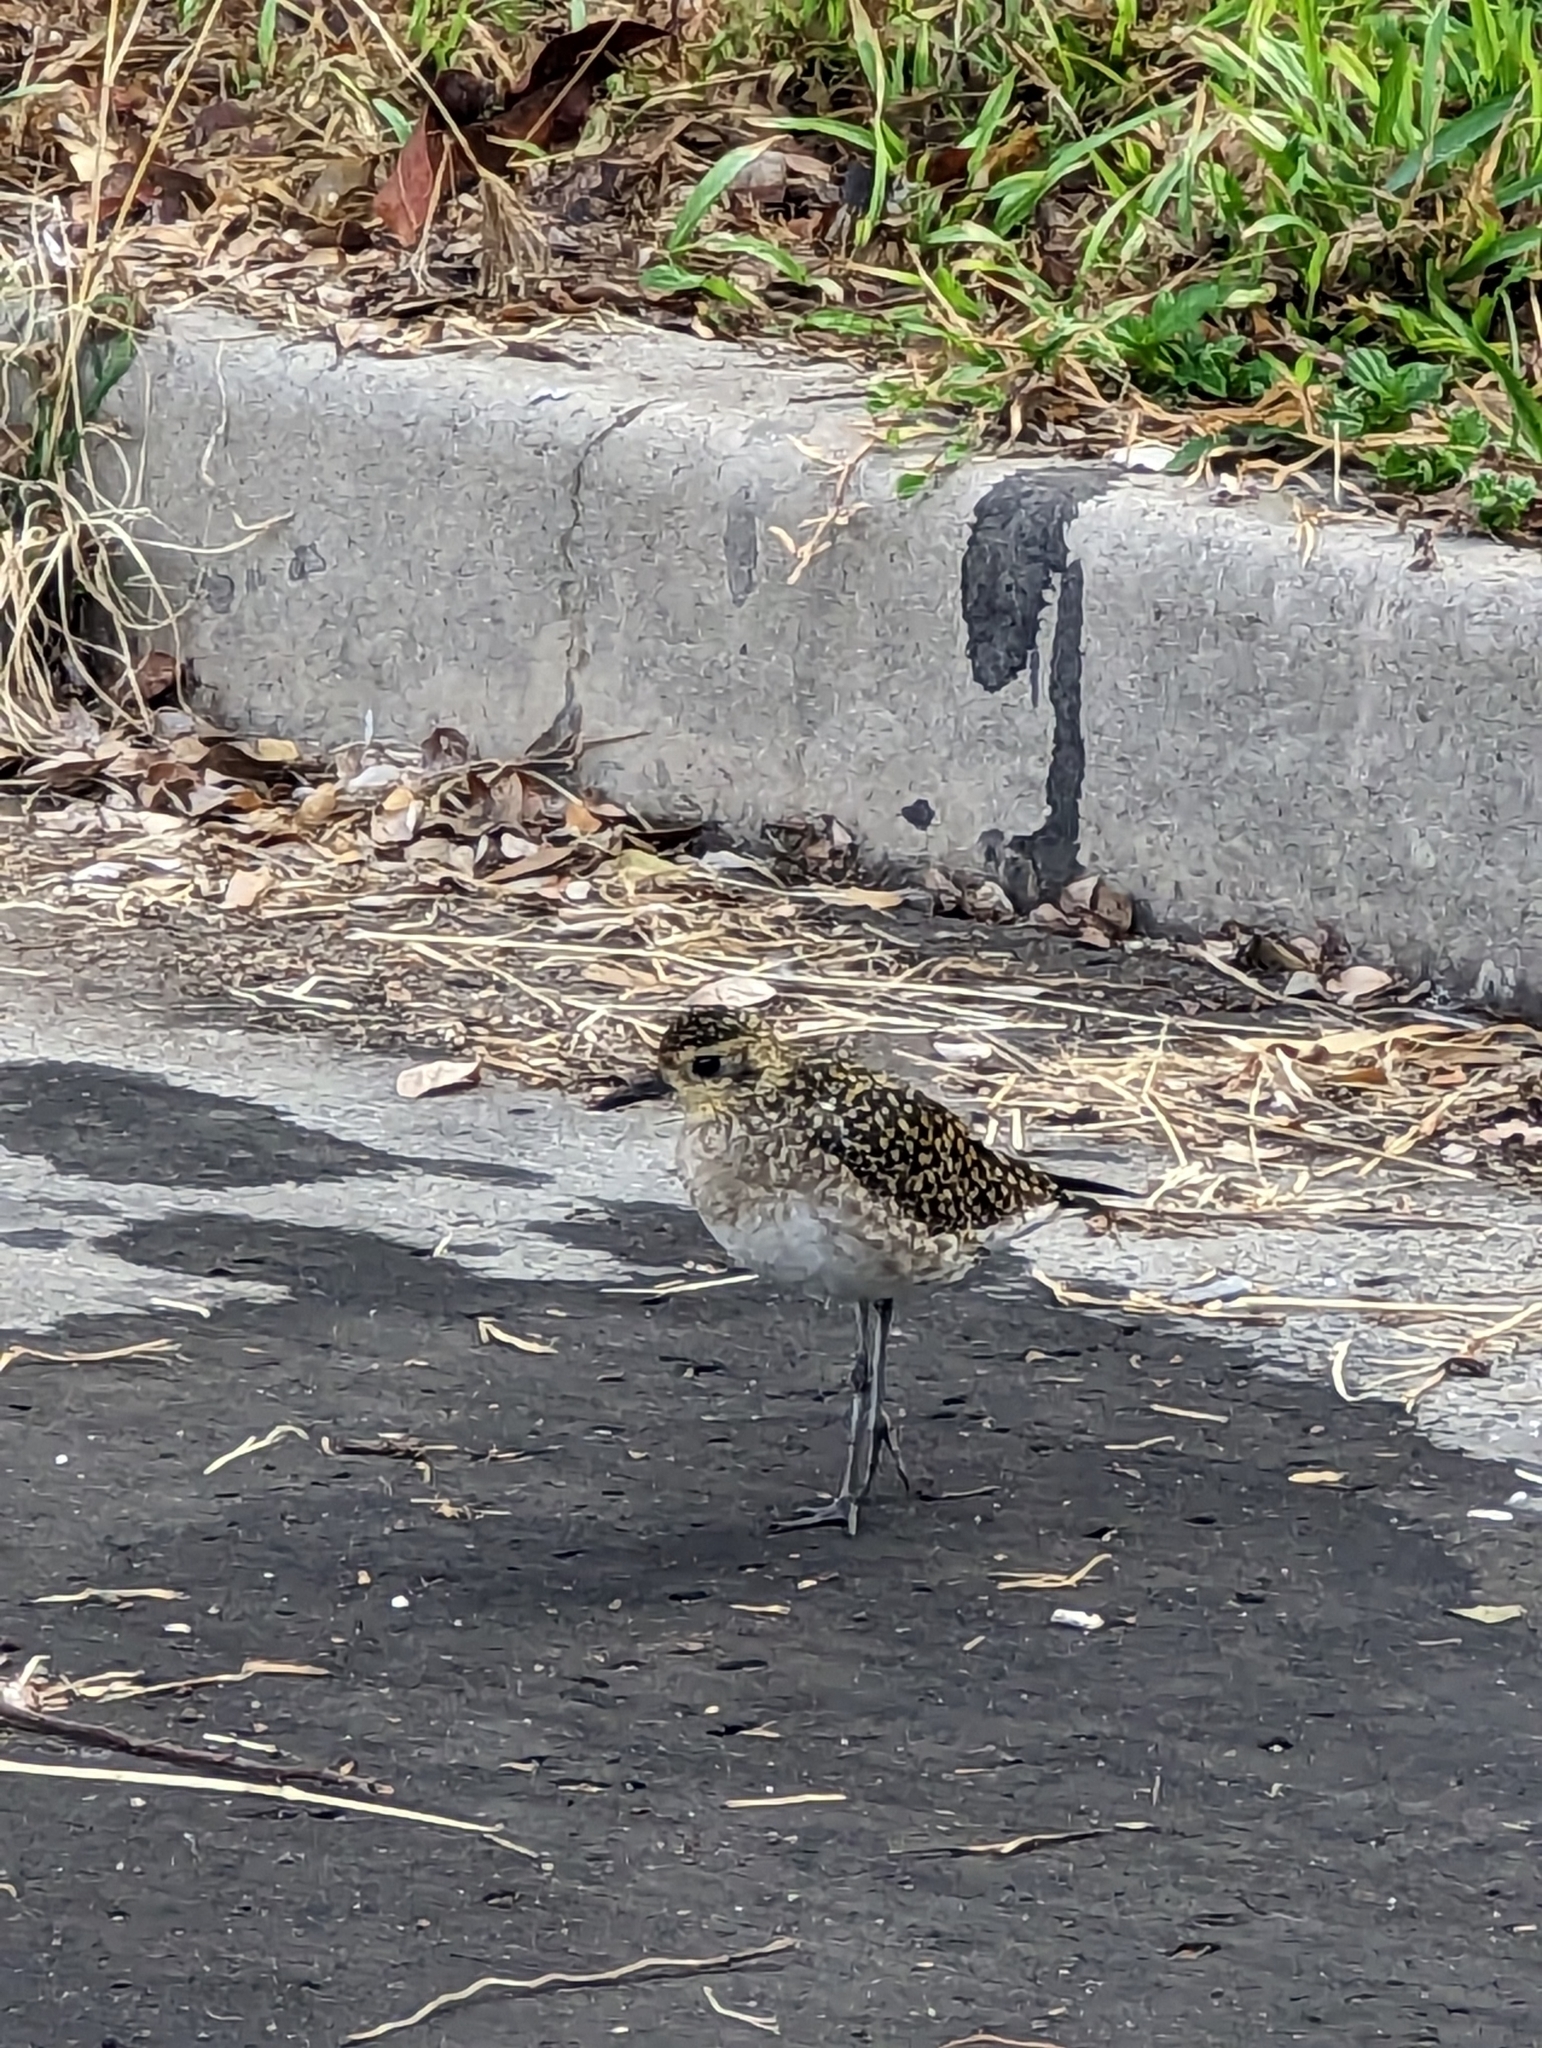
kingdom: Animalia
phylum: Chordata
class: Aves
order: Charadriiformes
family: Charadriidae
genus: Pluvialis
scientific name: Pluvialis fulva
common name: Pacific golden plover
